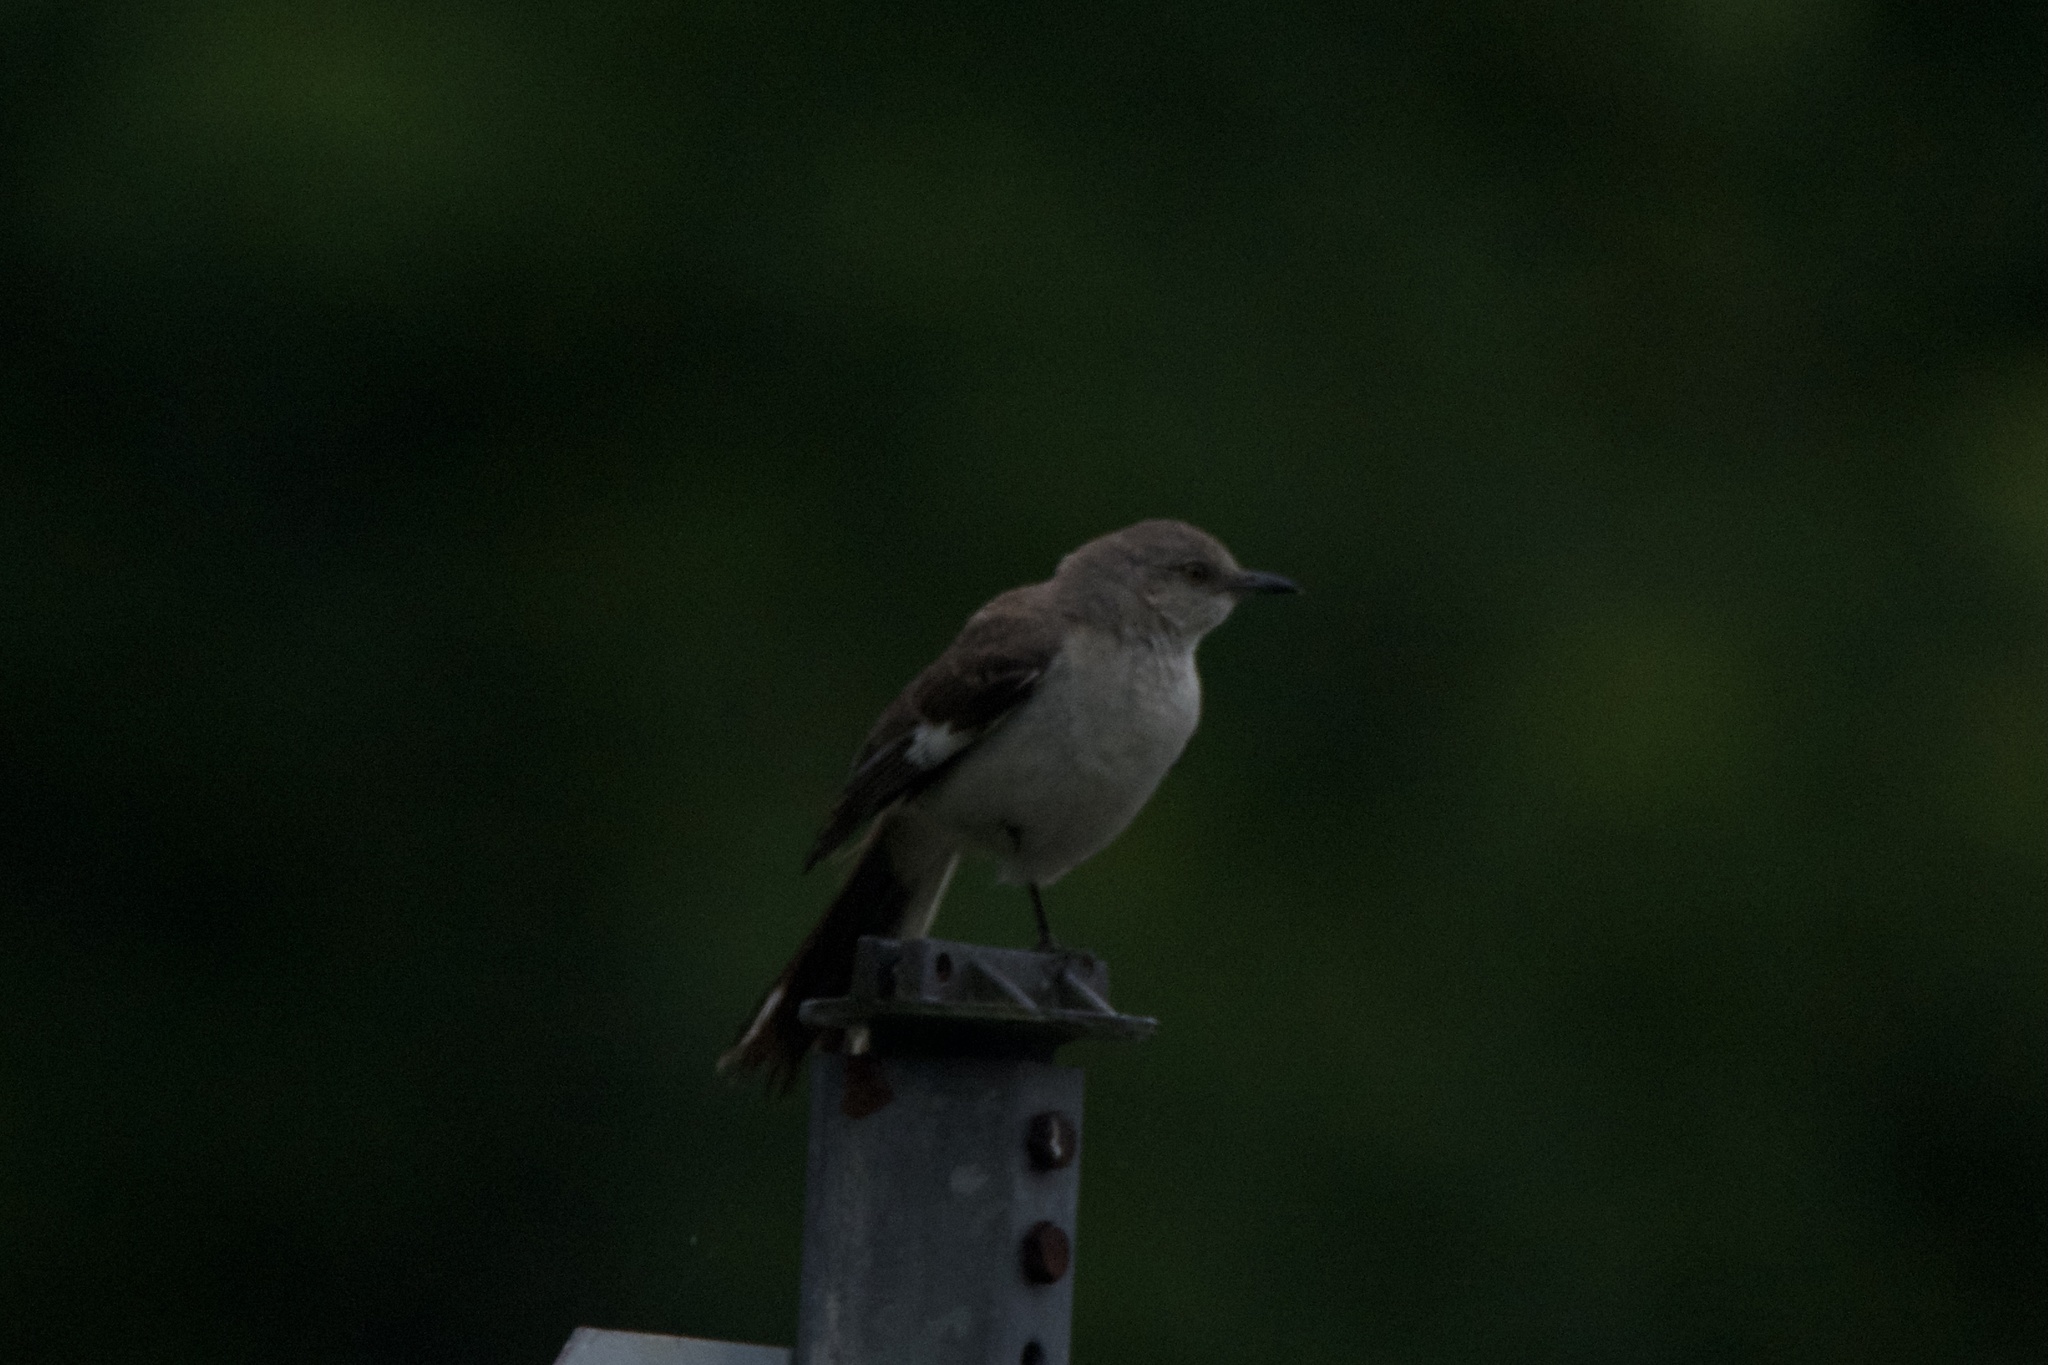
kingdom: Animalia
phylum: Chordata
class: Aves
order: Passeriformes
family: Mimidae
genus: Mimus
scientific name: Mimus polyglottos
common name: Northern mockingbird
